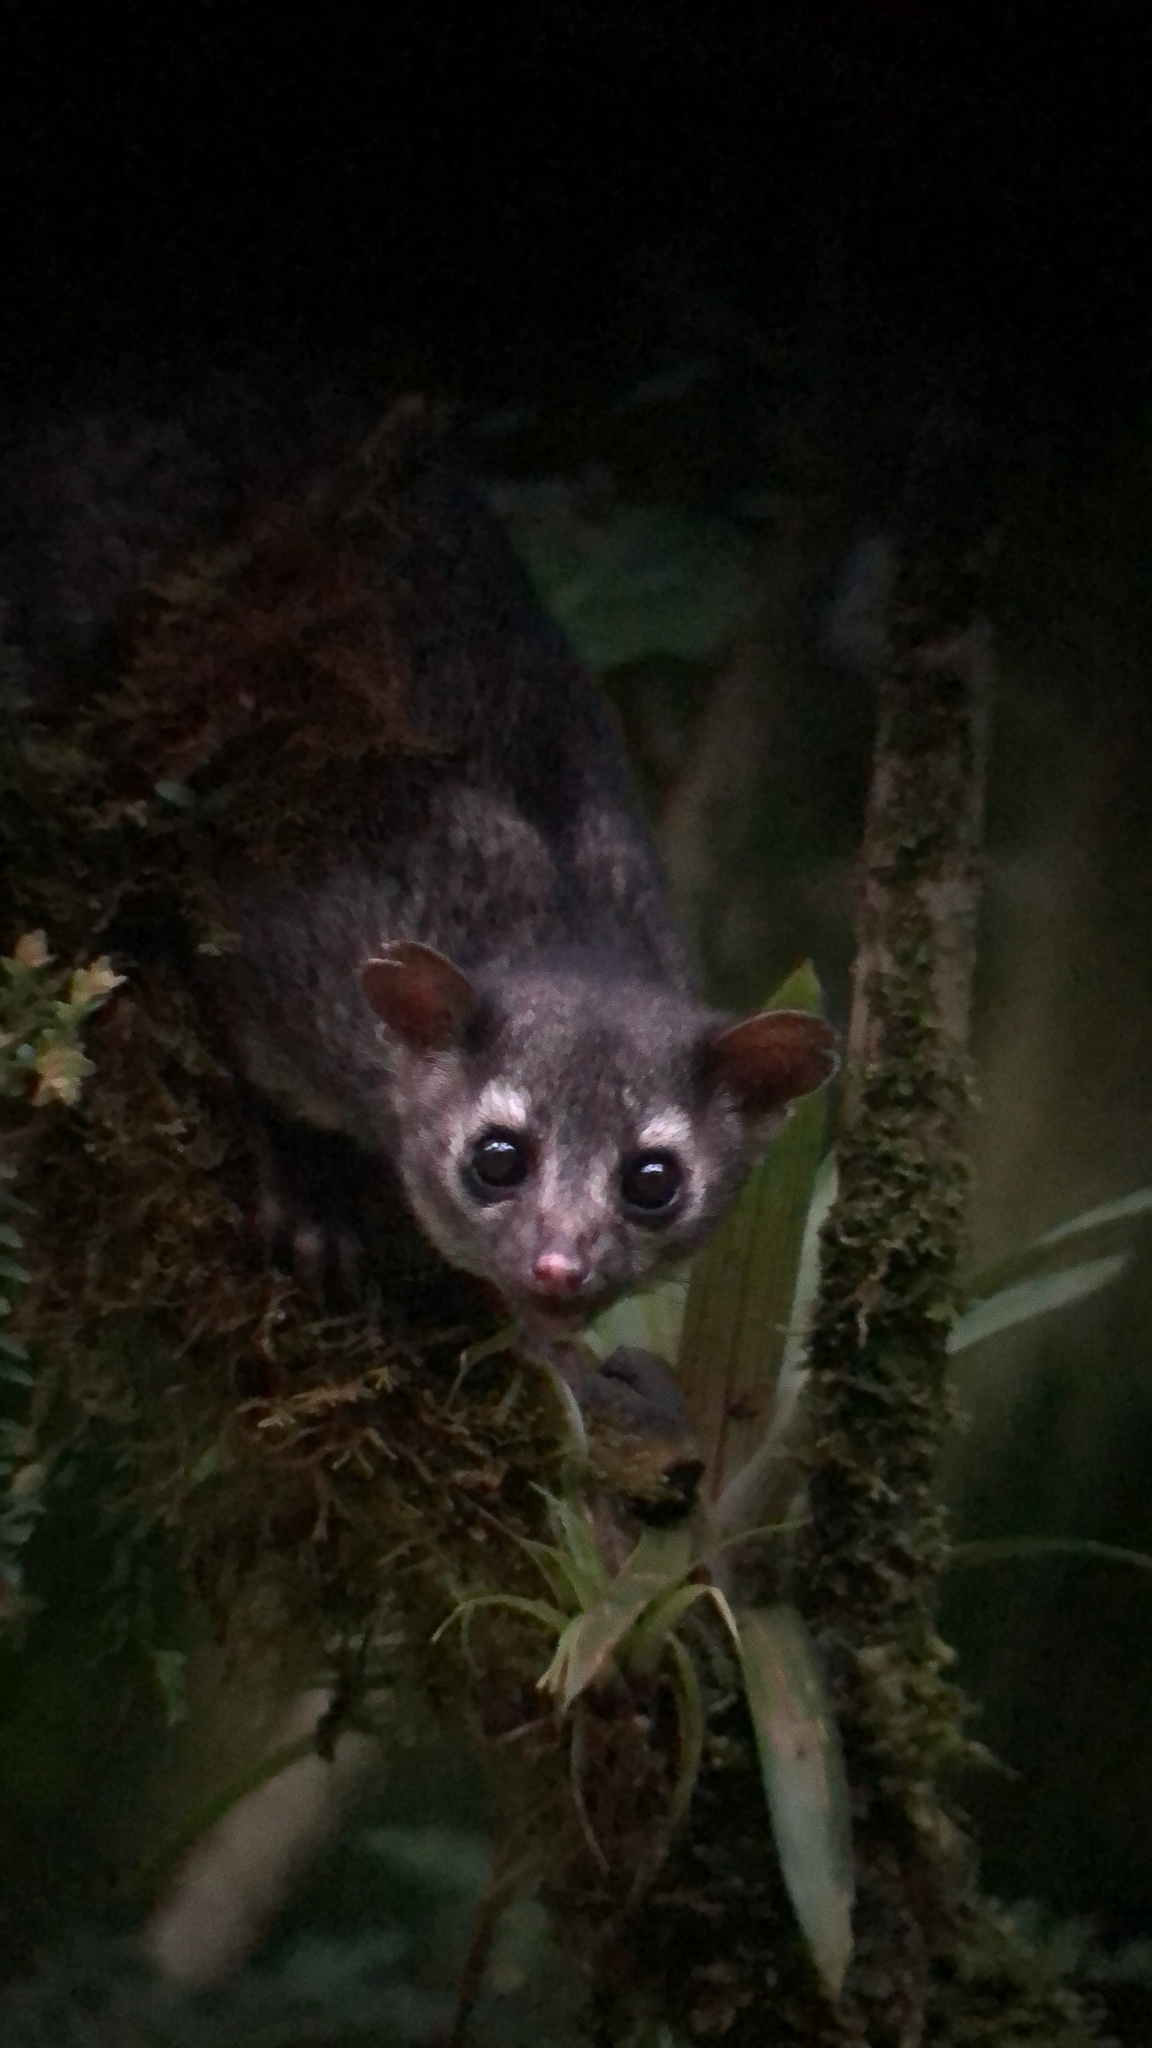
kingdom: Animalia
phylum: Chordata
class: Mammalia
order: Carnivora
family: Procyonidae
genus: Bassariscus
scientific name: Bassariscus sumichrasti
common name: Cacomistle
